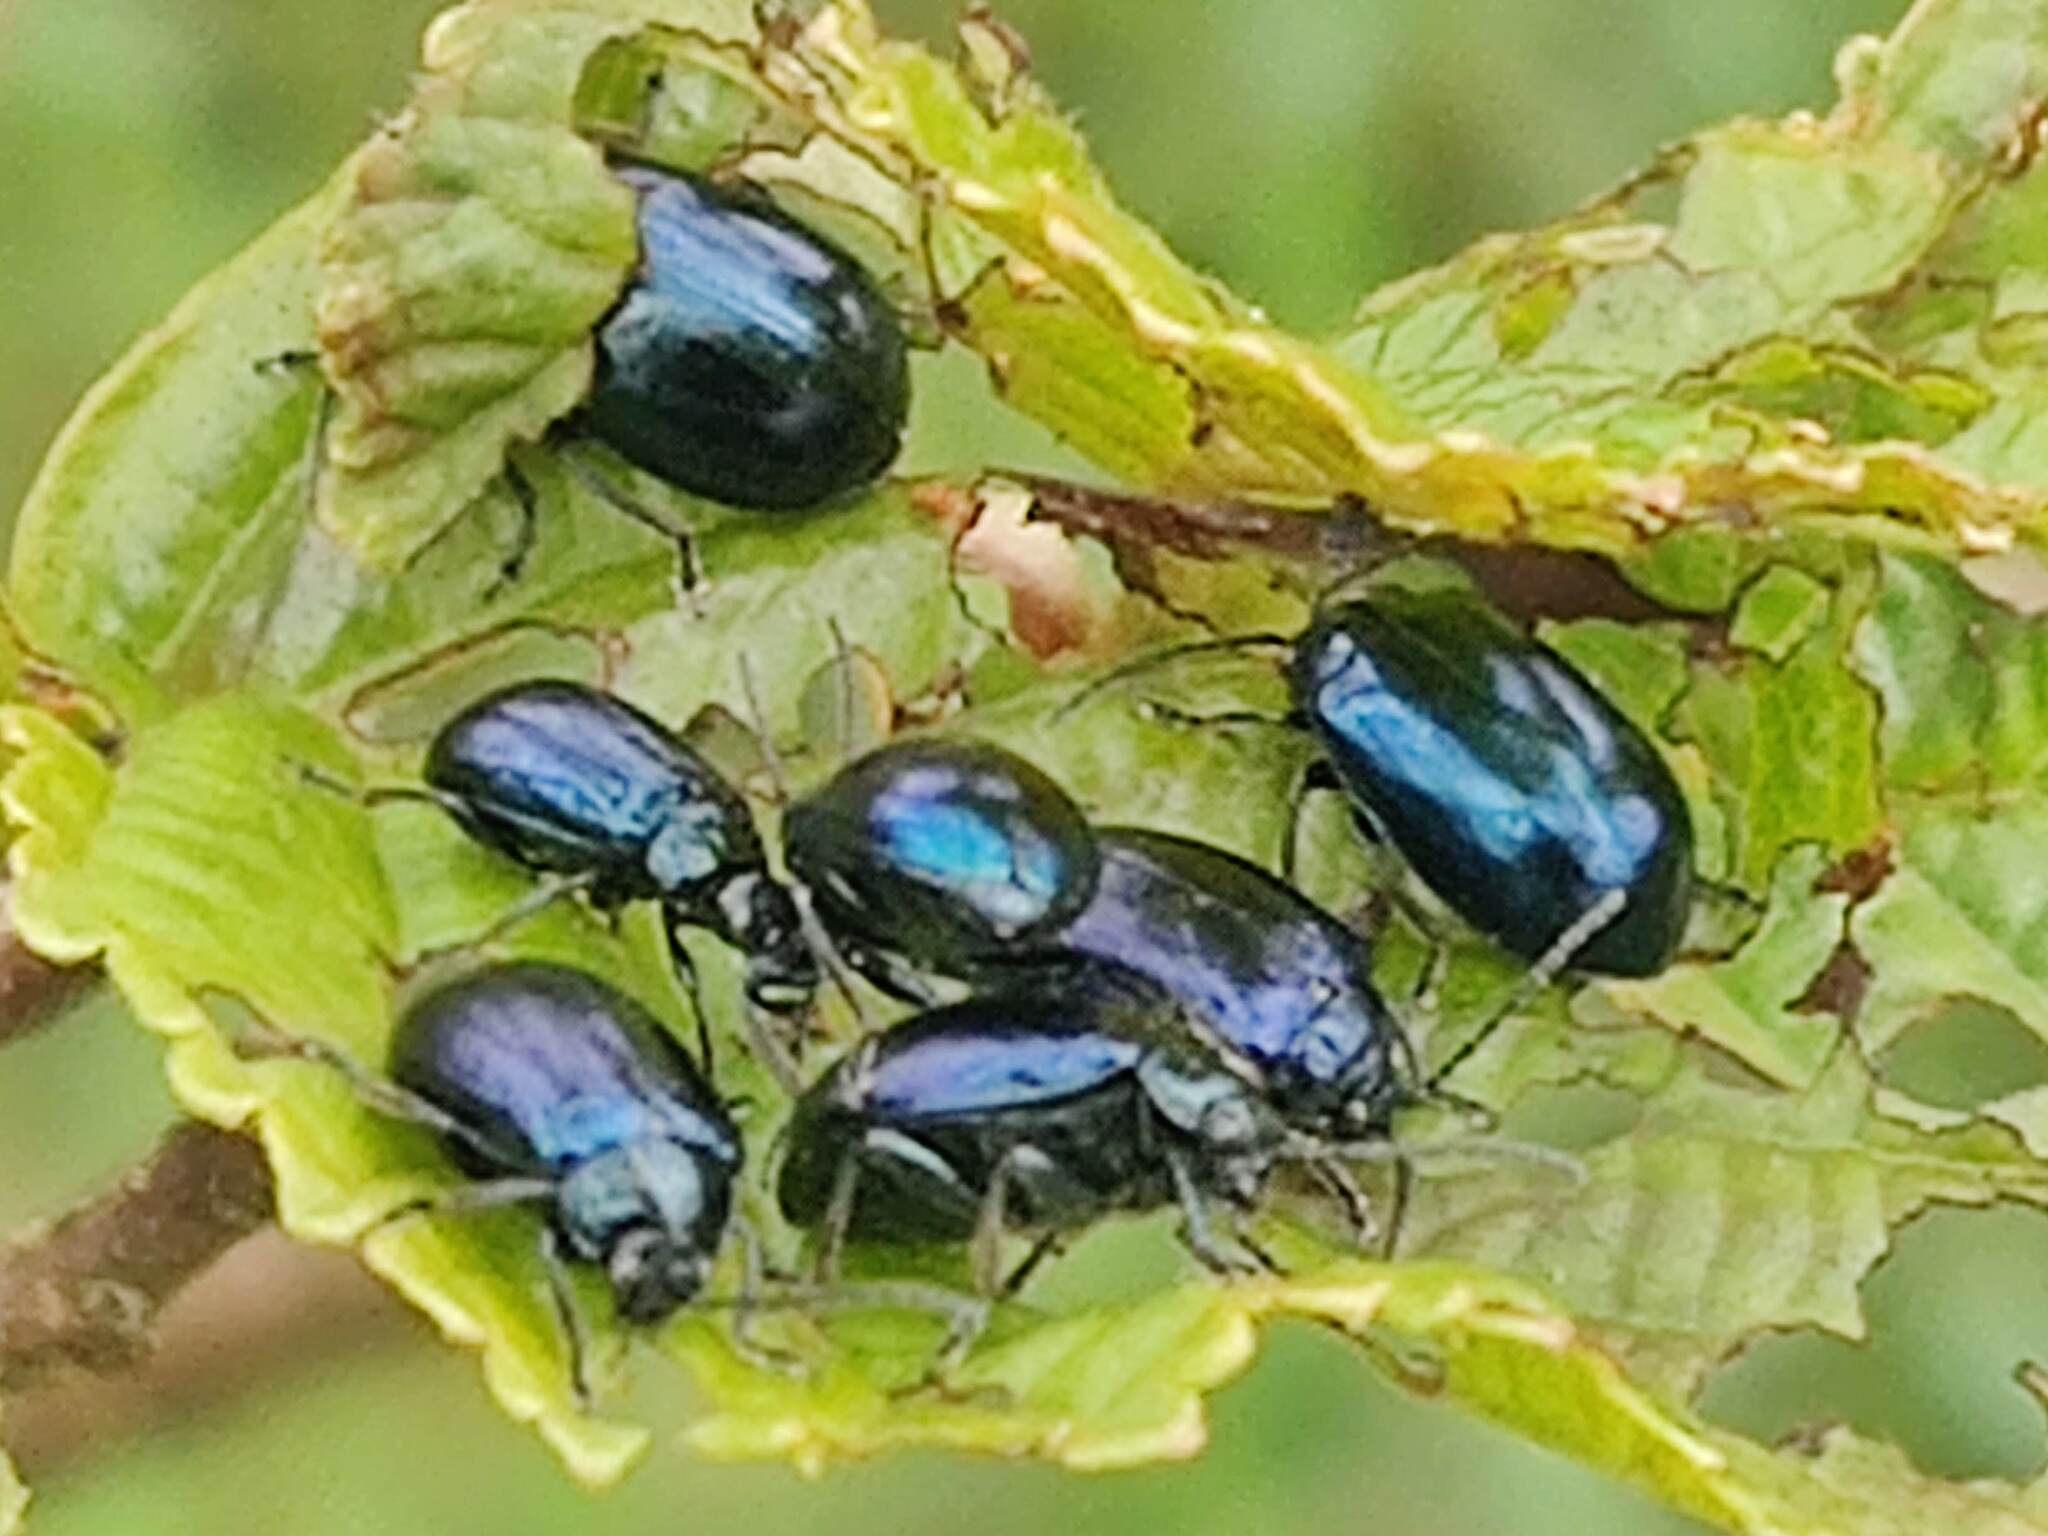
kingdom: Animalia
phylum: Arthropoda
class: Insecta
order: Coleoptera
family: Chrysomelidae
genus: Agelastica
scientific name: Agelastica alni
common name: Alder leaf beetle
